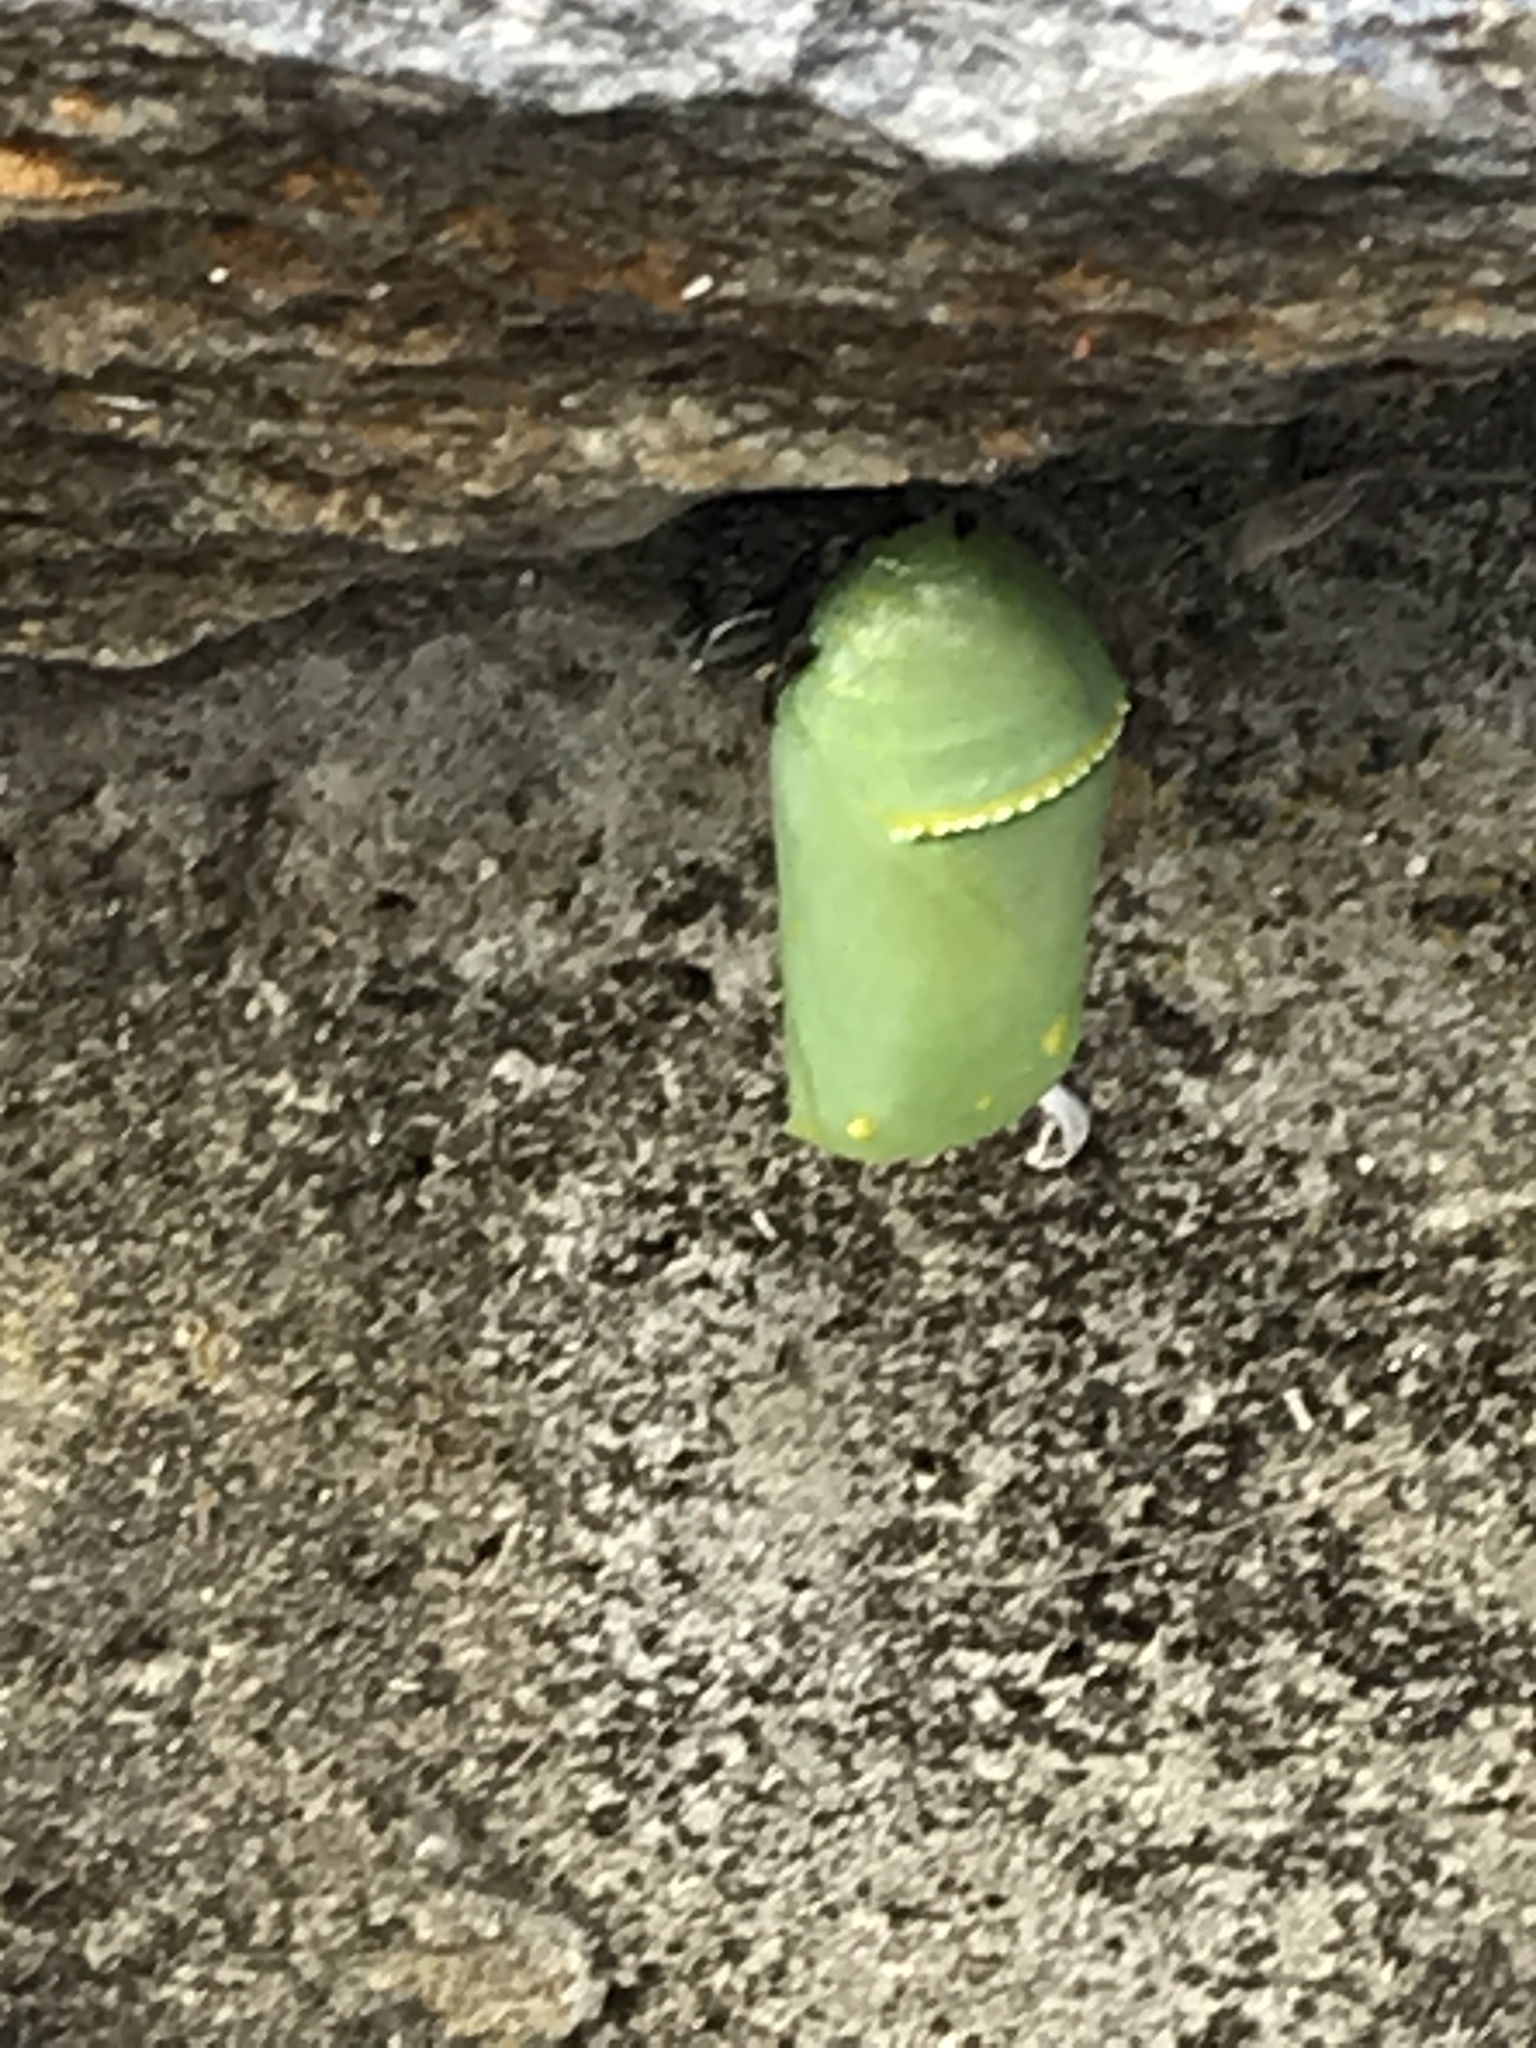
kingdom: Animalia
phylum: Arthropoda
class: Insecta
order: Lepidoptera
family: Nymphalidae
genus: Danaus
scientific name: Danaus plexippus
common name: Monarch
